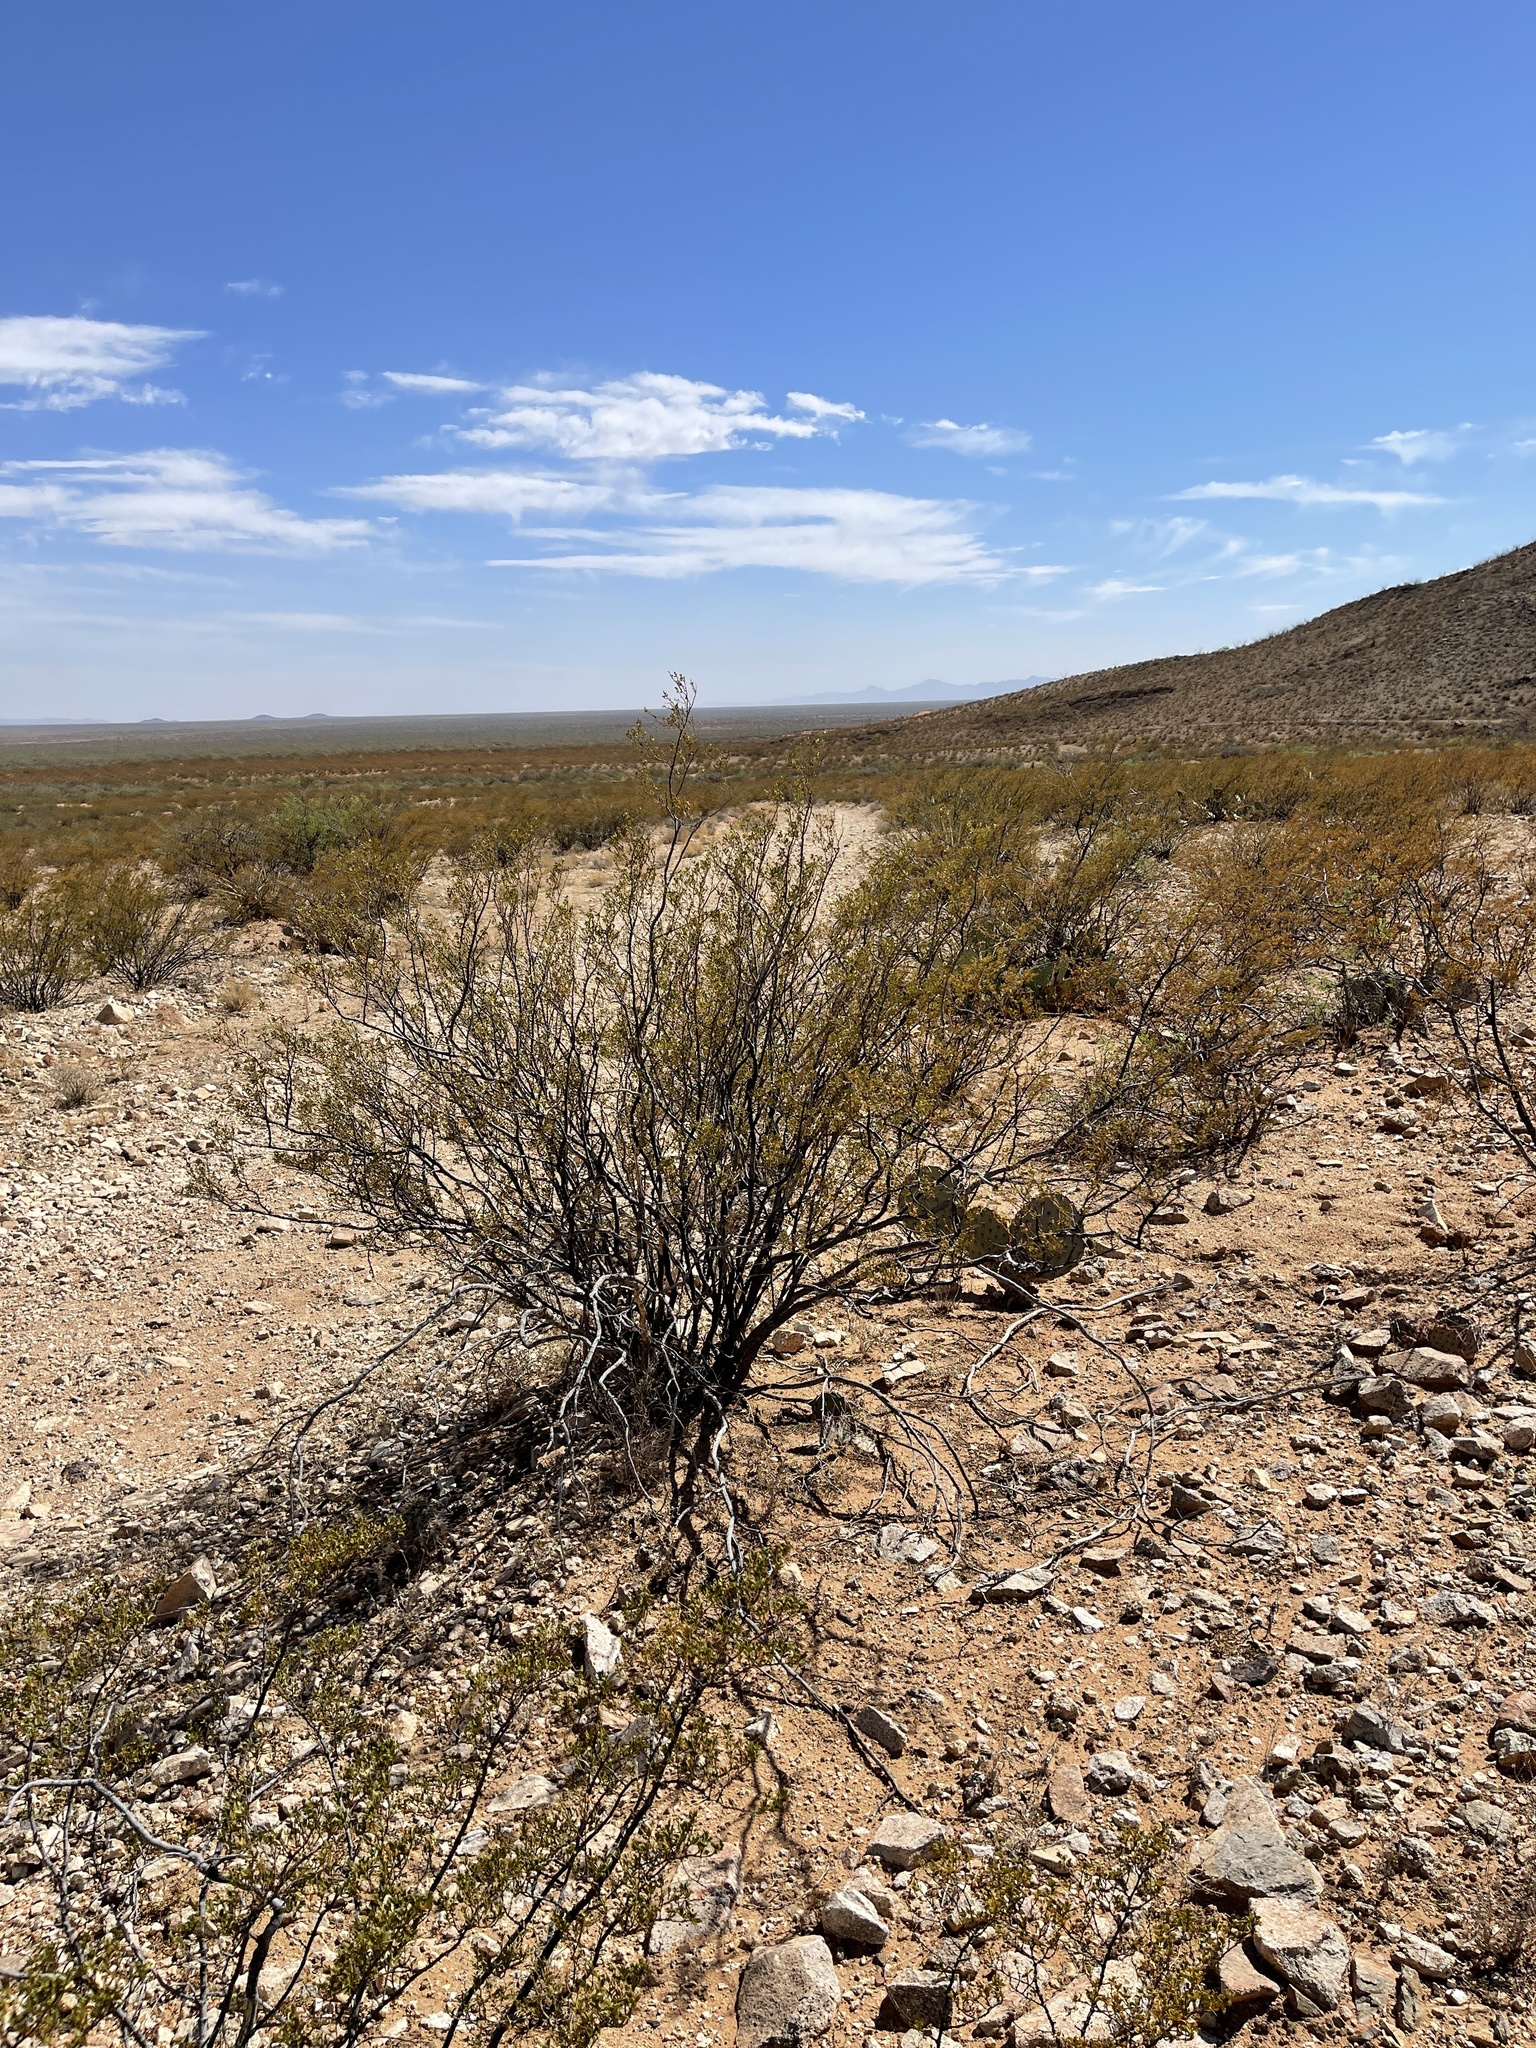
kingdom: Plantae
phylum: Tracheophyta
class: Magnoliopsida
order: Zygophyllales
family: Zygophyllaceae
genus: Larrea
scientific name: Larrea tridentata
